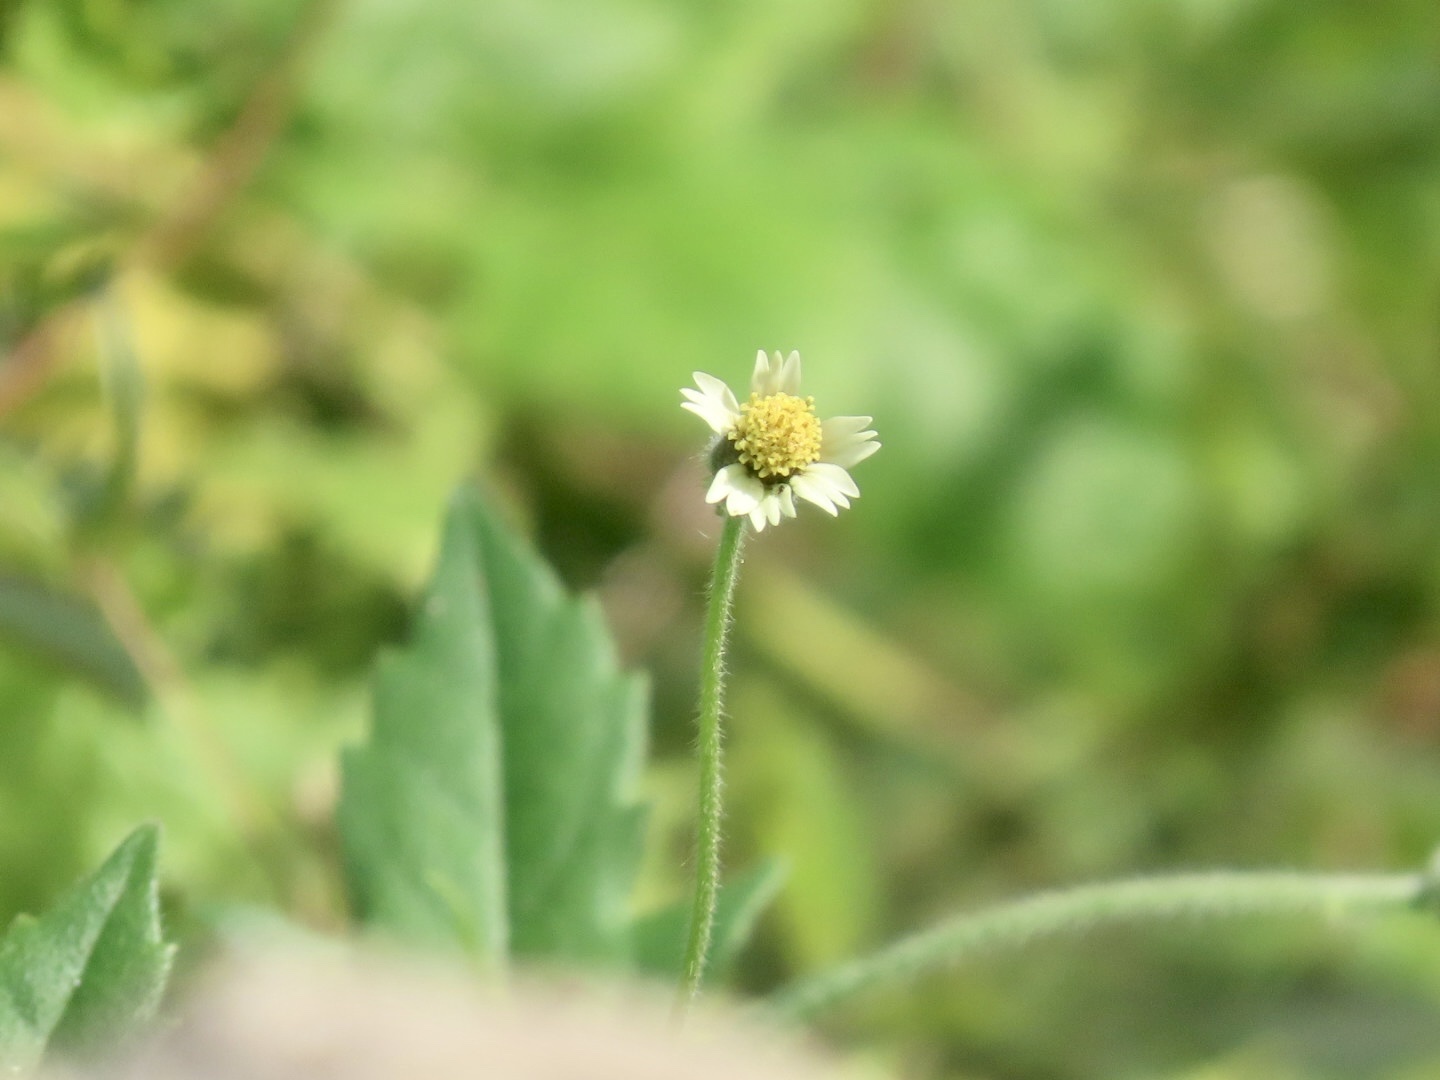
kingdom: Plantae
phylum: Tracheophyta
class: Magnoliopsida
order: Asterales
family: Asteraceae
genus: Tridax
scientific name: Tridax procumbens
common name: Coatbuttons
